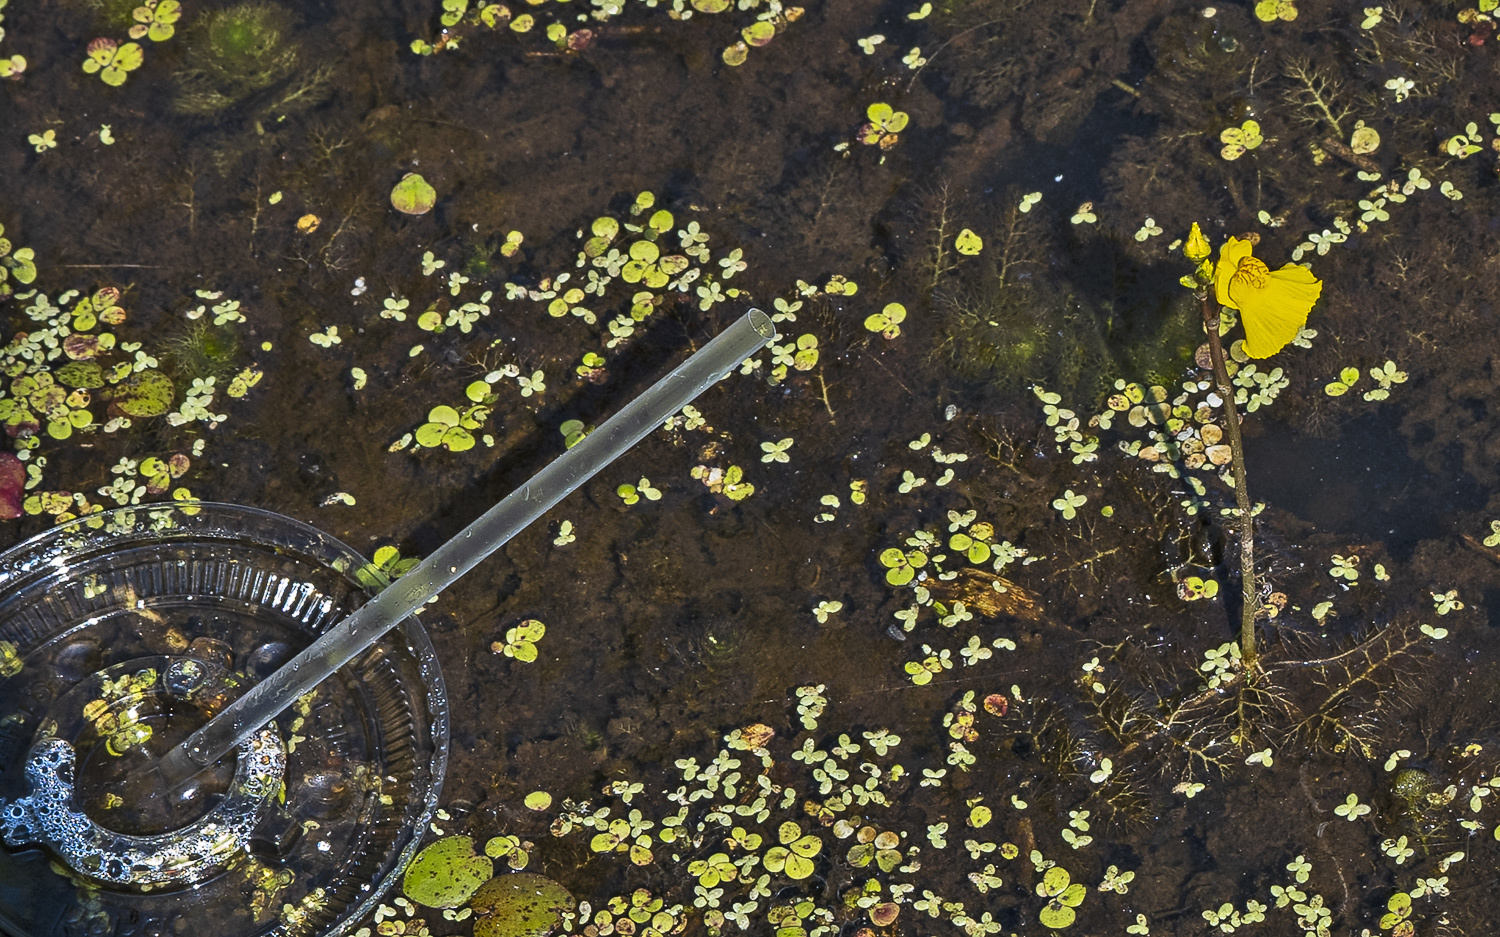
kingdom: Plantae
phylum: Tracheophyta
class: Magnoliopsida
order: Lamiales
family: Lentibulariaceae
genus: Utricularia
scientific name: Utricularia macrorhiza
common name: Common bladderwort
